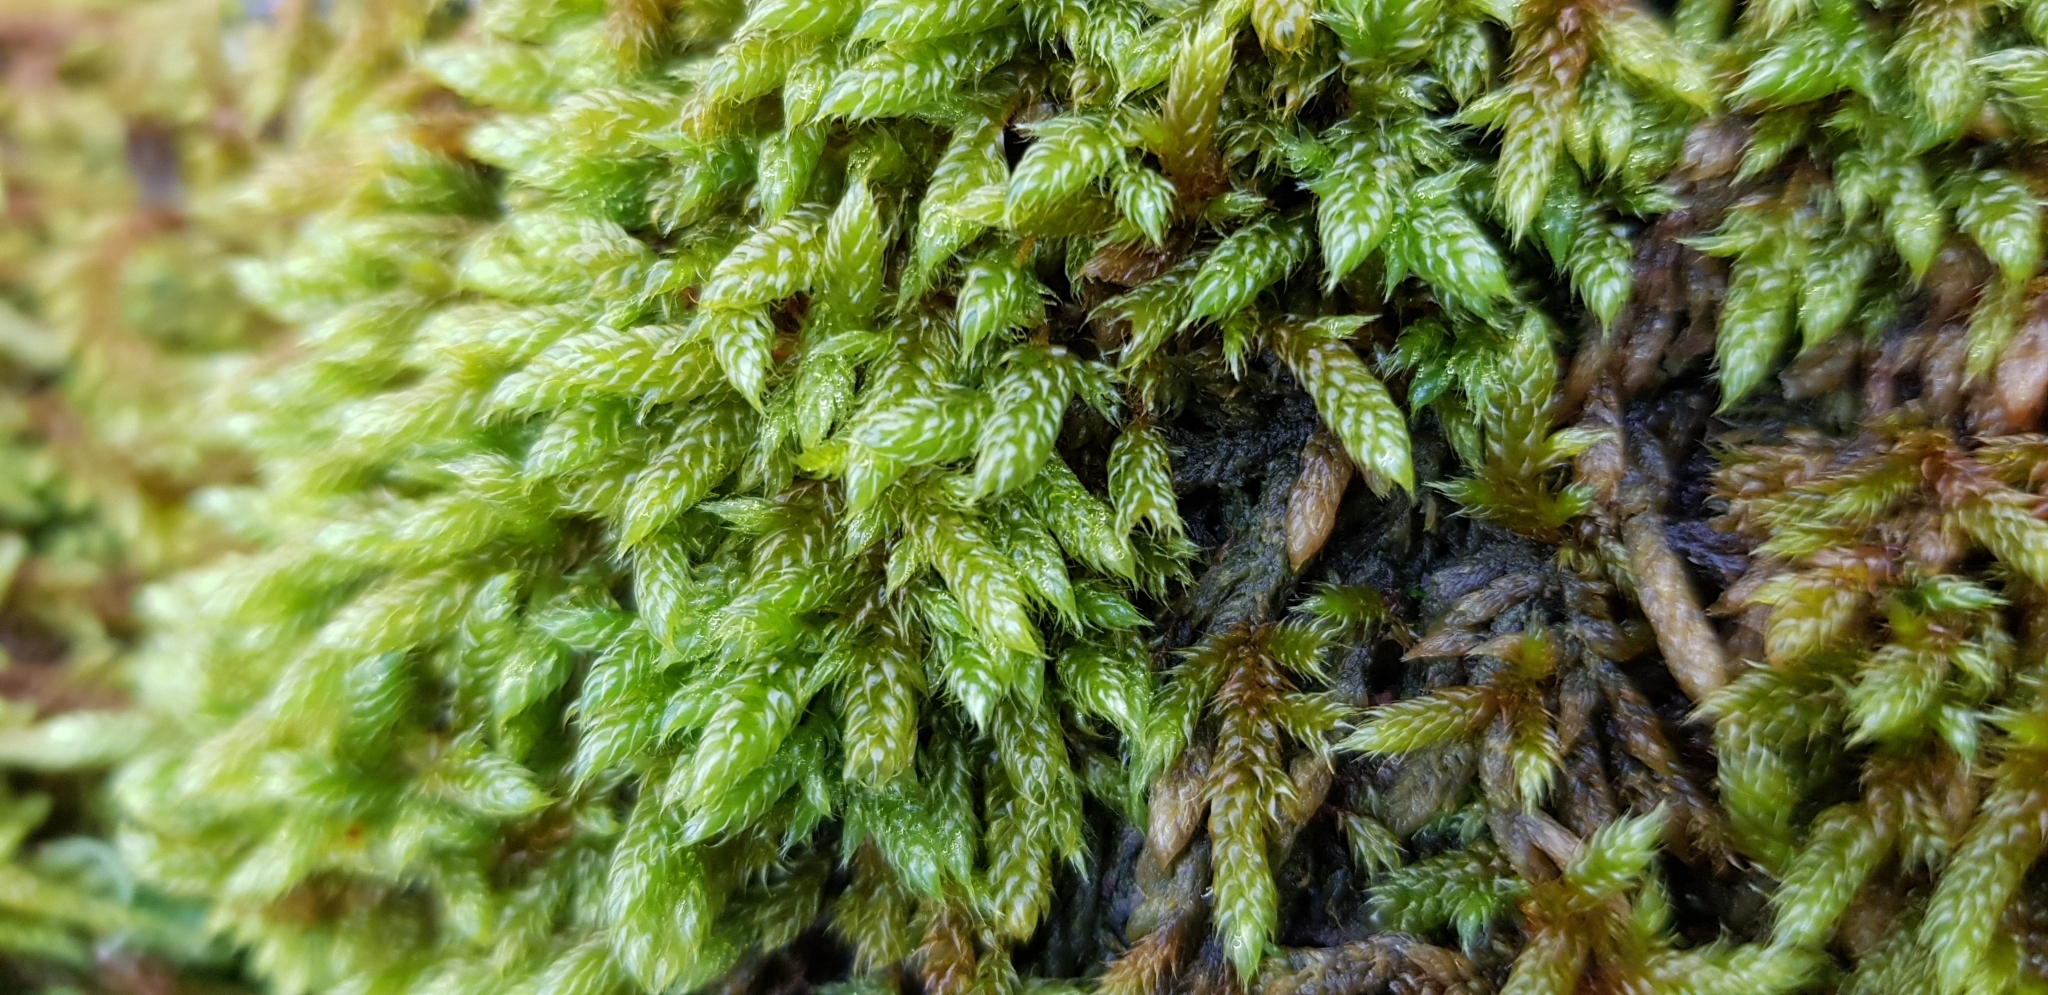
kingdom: Plantae
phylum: Bryophyta
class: Bryopsida
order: Hypnales
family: Hypnaceae
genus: Hypnum
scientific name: Hypnum cupressiforme
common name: Cypress-leaved plait-moss
